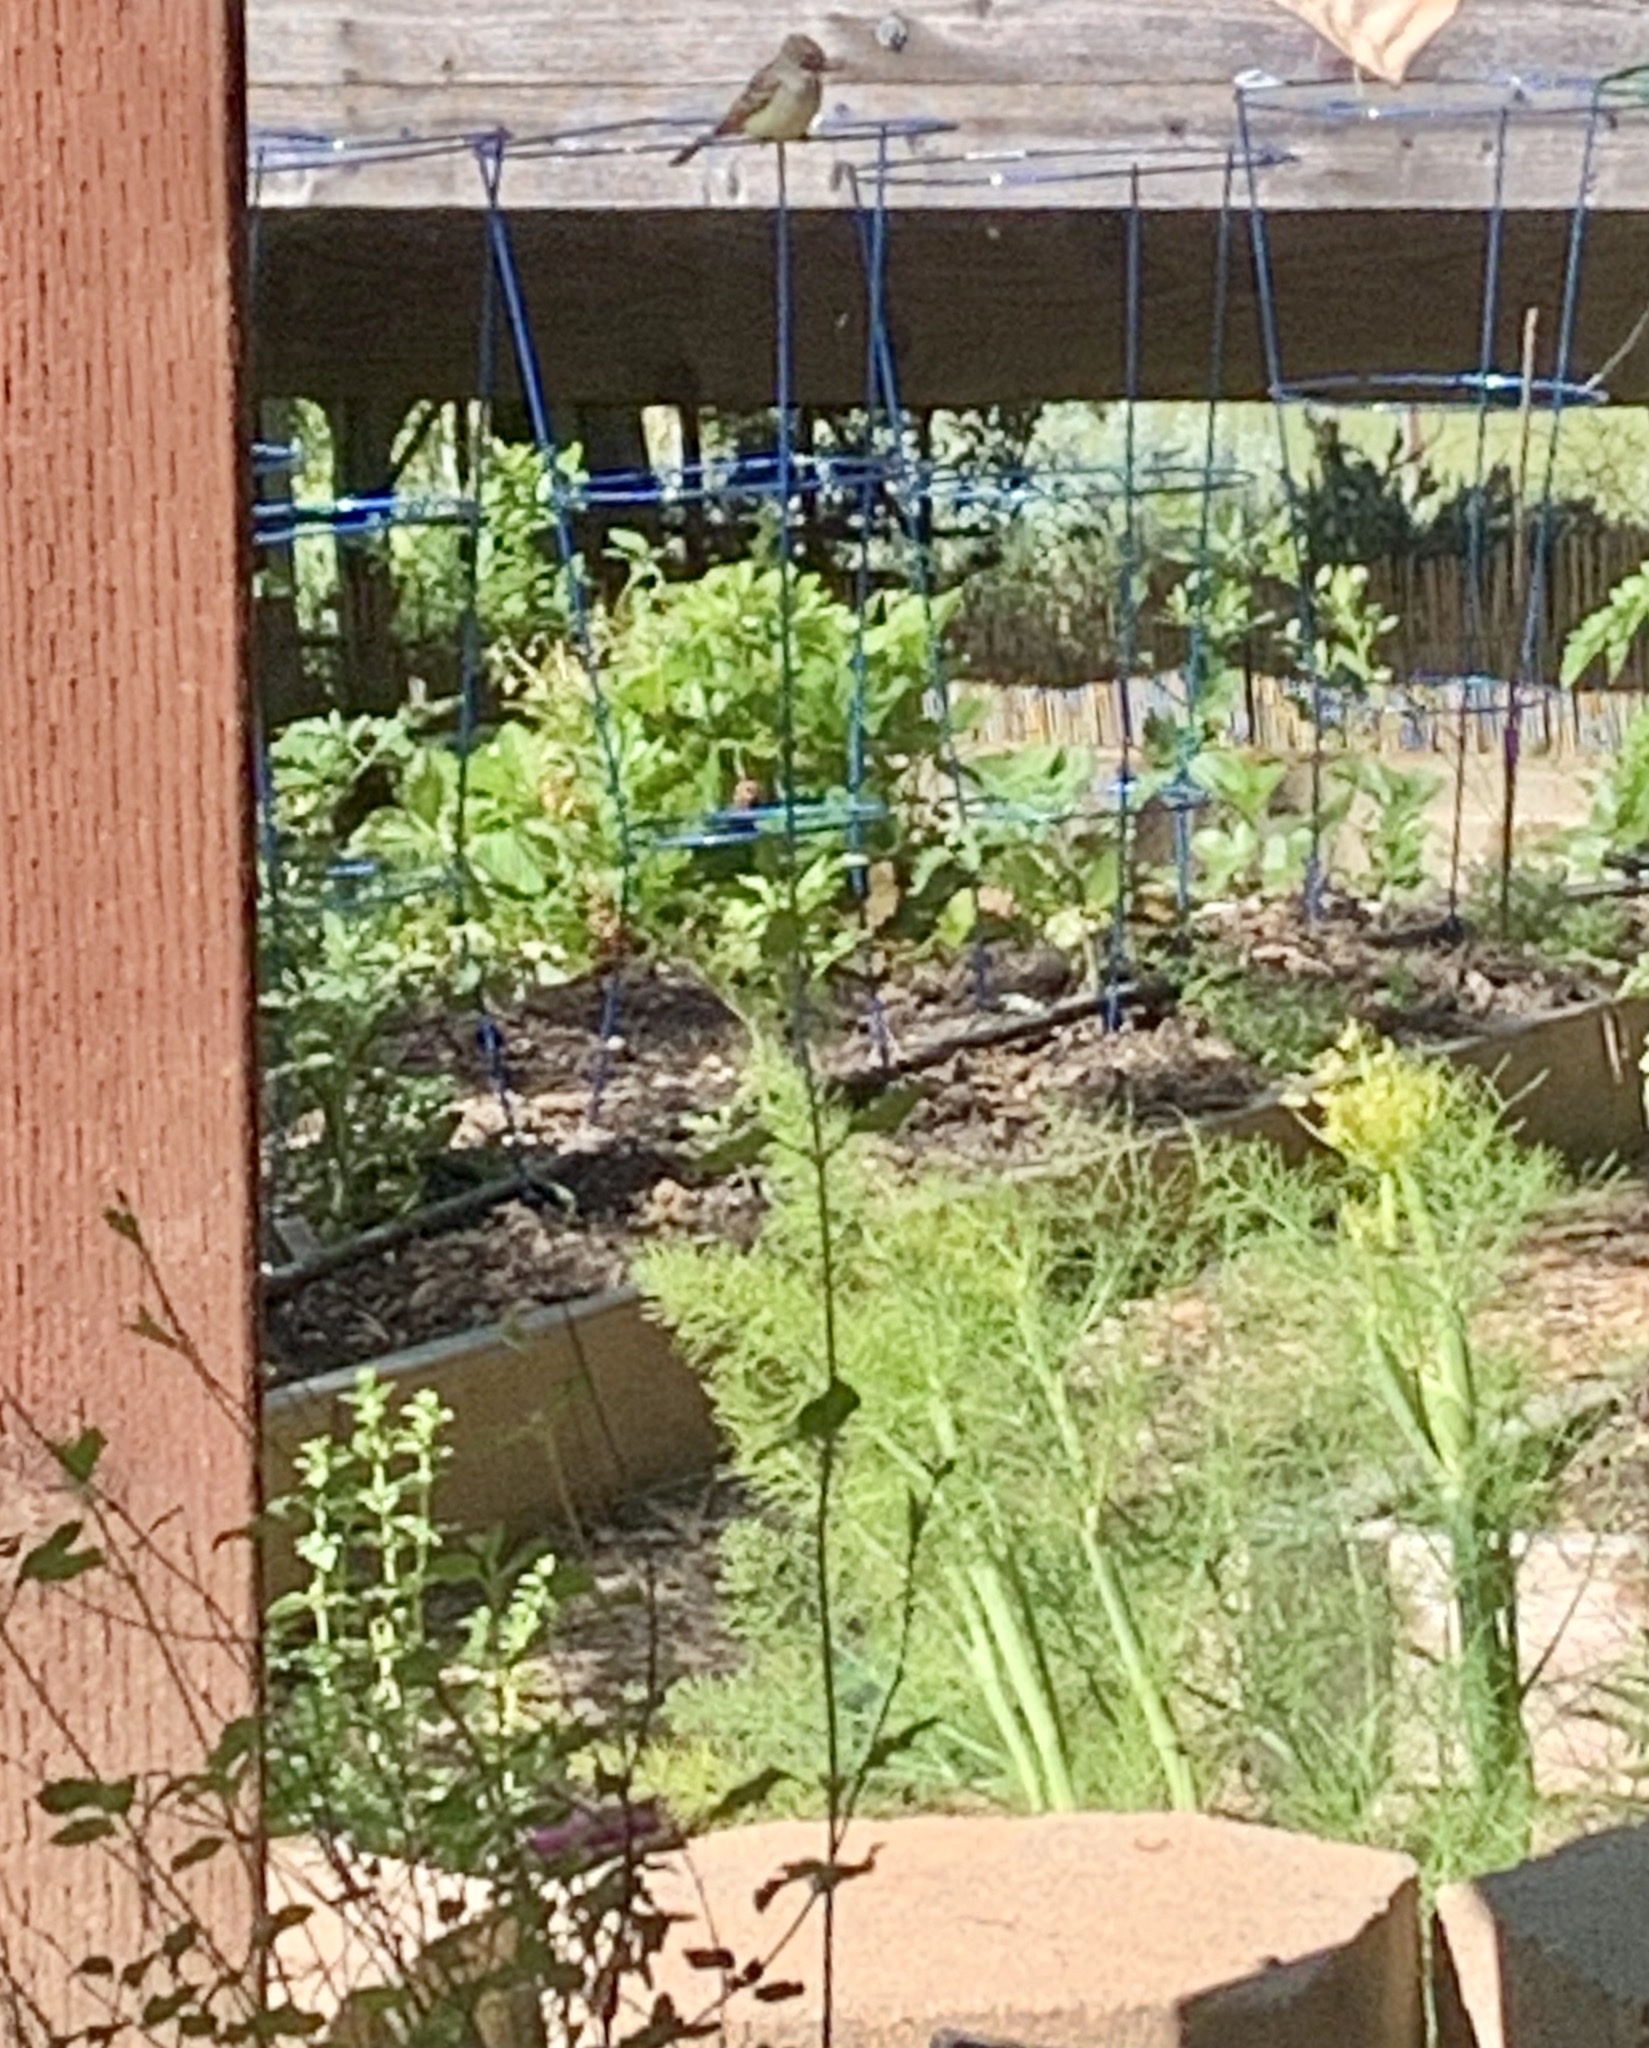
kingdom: Animalia
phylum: Chordata
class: Aves
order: Passeriformes
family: Tyrannidae
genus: Myiarchus
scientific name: Myiarchus cinerascens
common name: Ash-throated flycatcher
